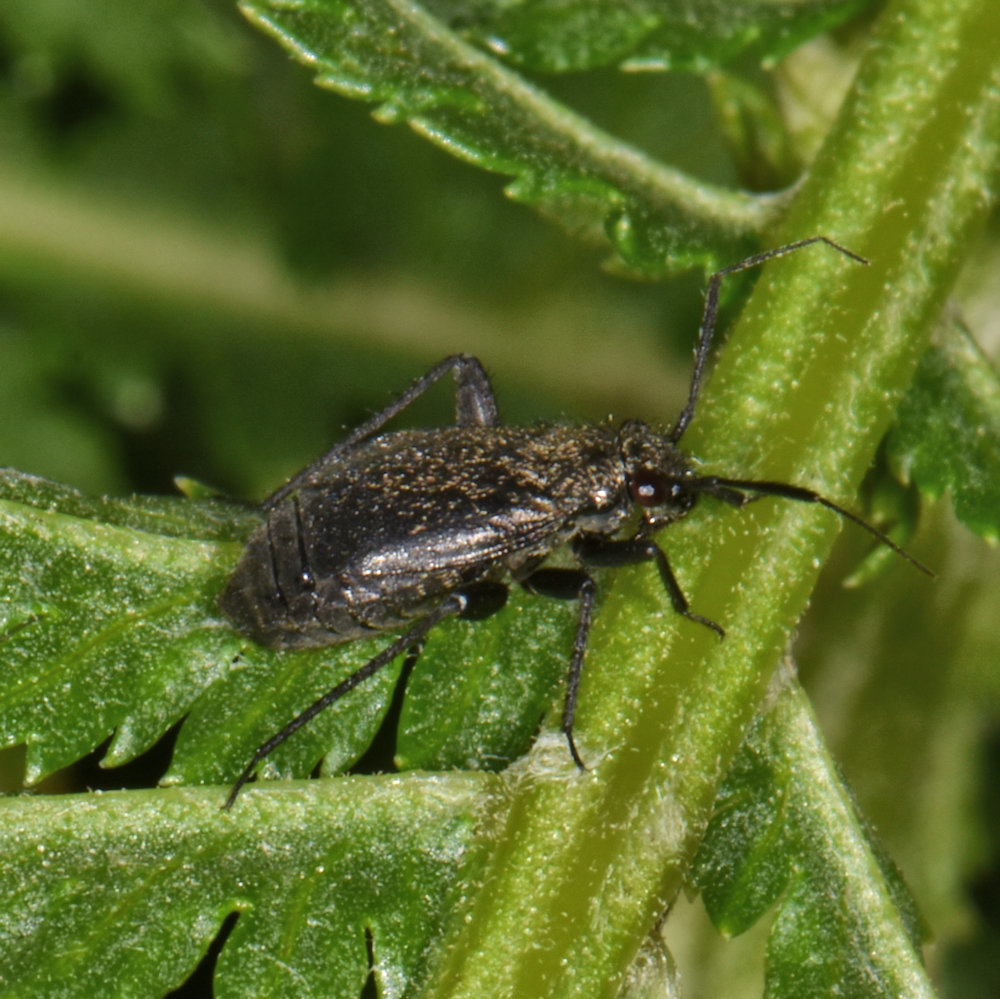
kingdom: Animalia
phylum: Arthropoda
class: Insecta
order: Hemiptera
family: Miridae
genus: Orthocephalus
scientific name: Orthocephalus coriaceus
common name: Plant bug
